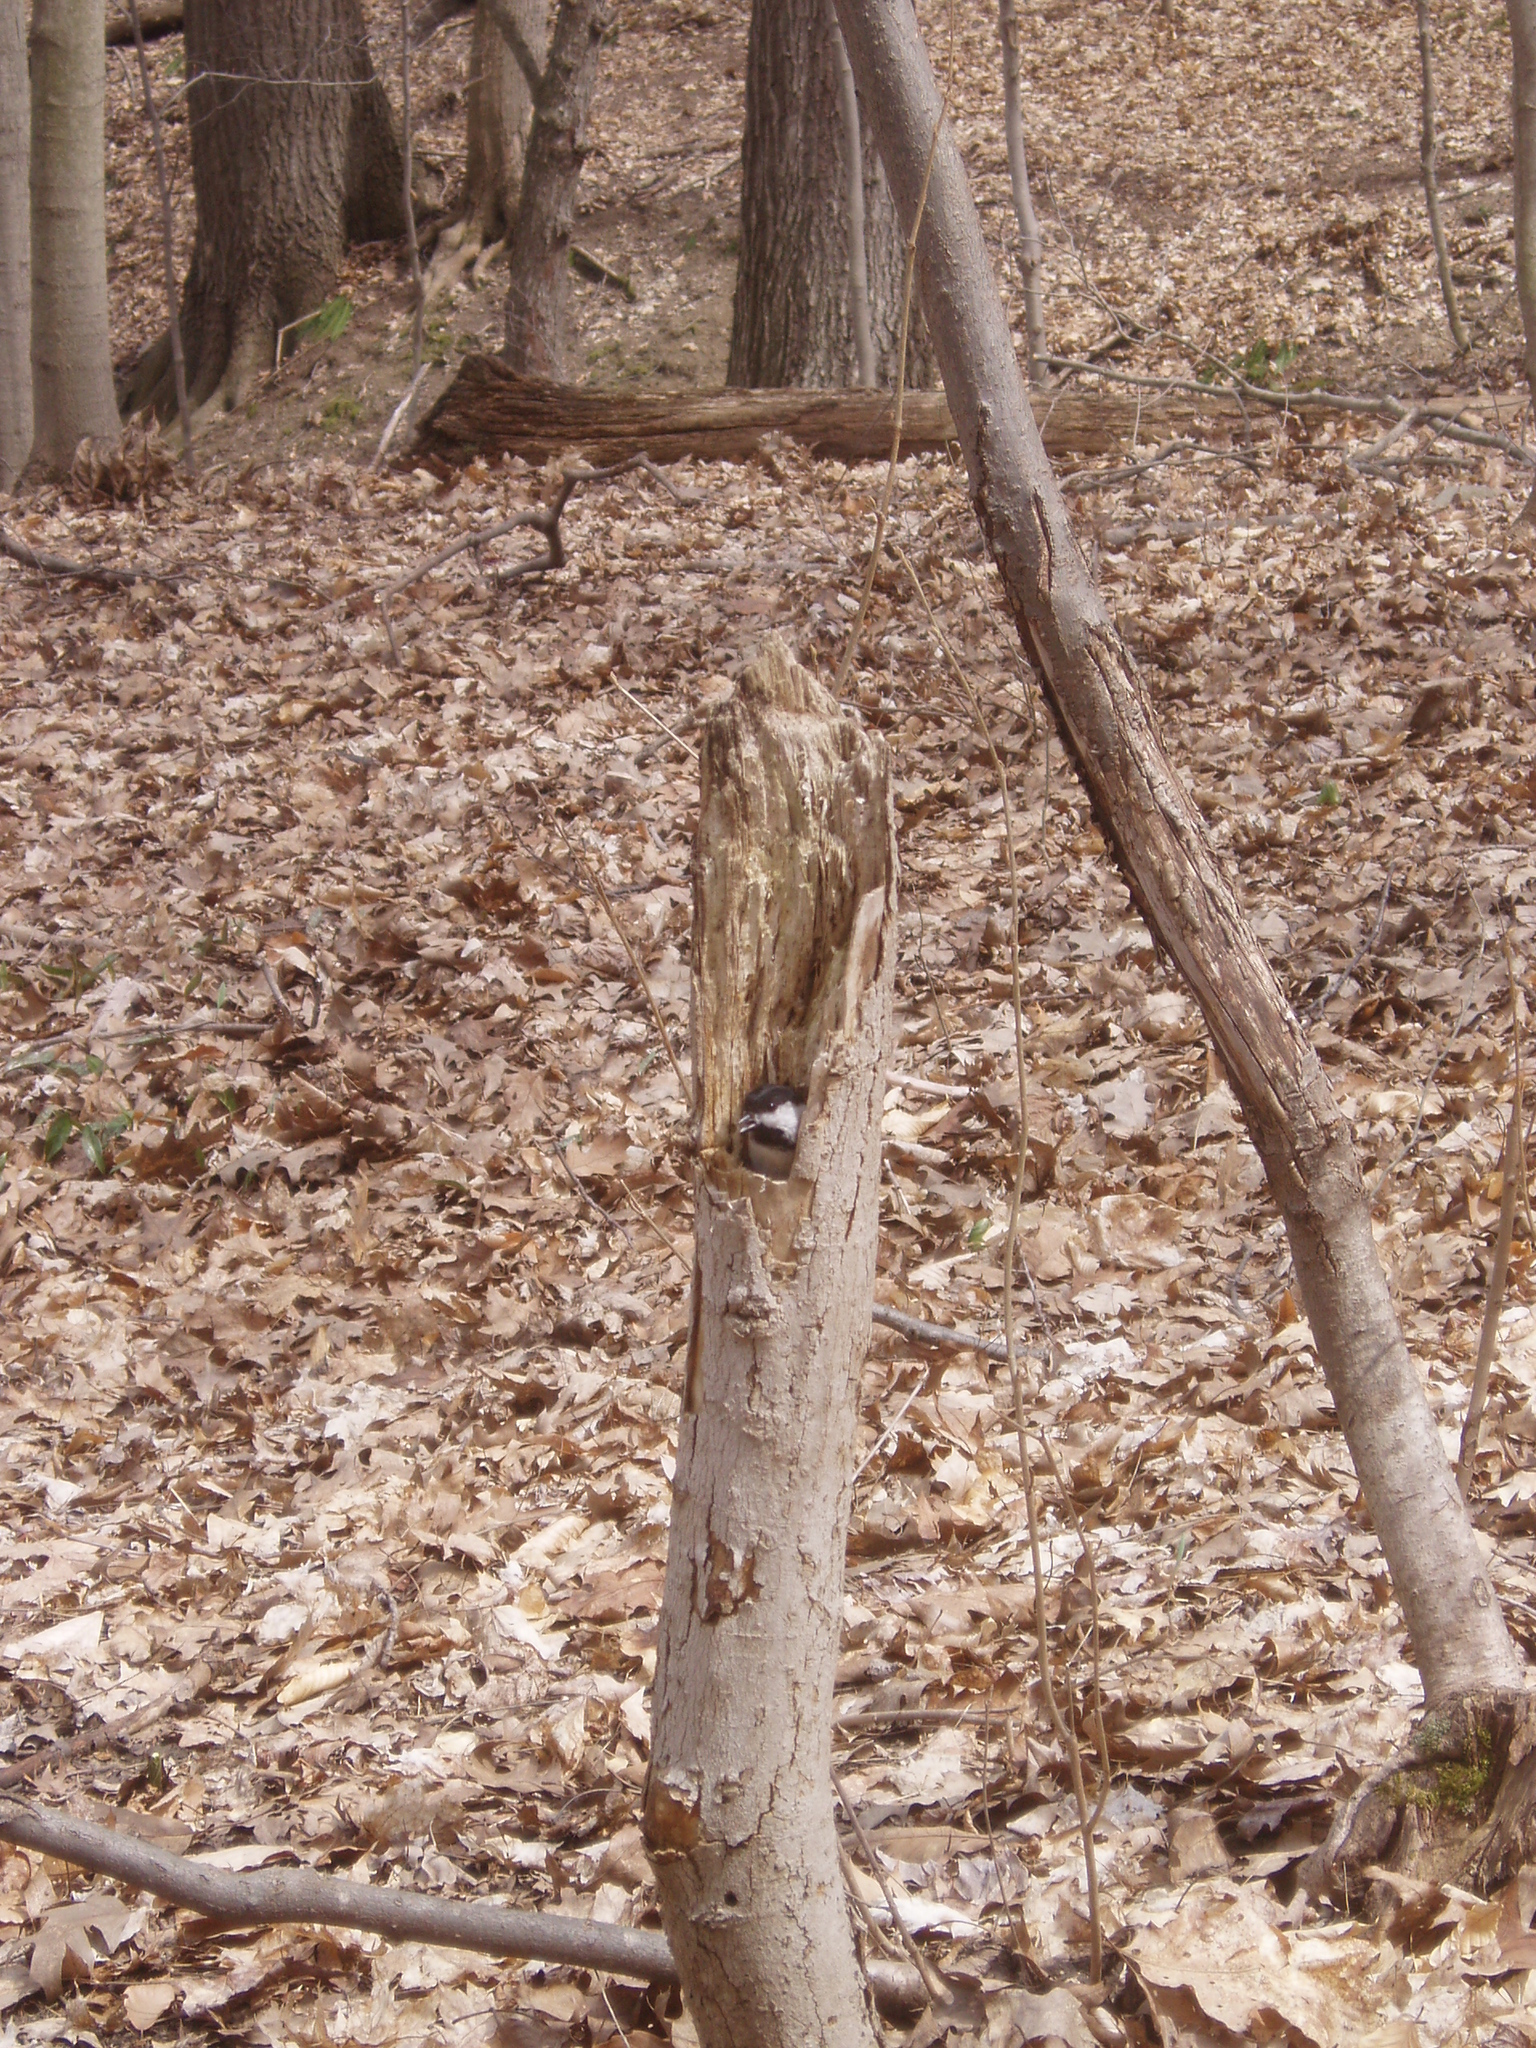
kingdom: Animalia
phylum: Chordata
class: Aves
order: Passeriformes
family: Paridae
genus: Poecile
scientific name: Poecile atricapillus
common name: Black-capped chickadee
